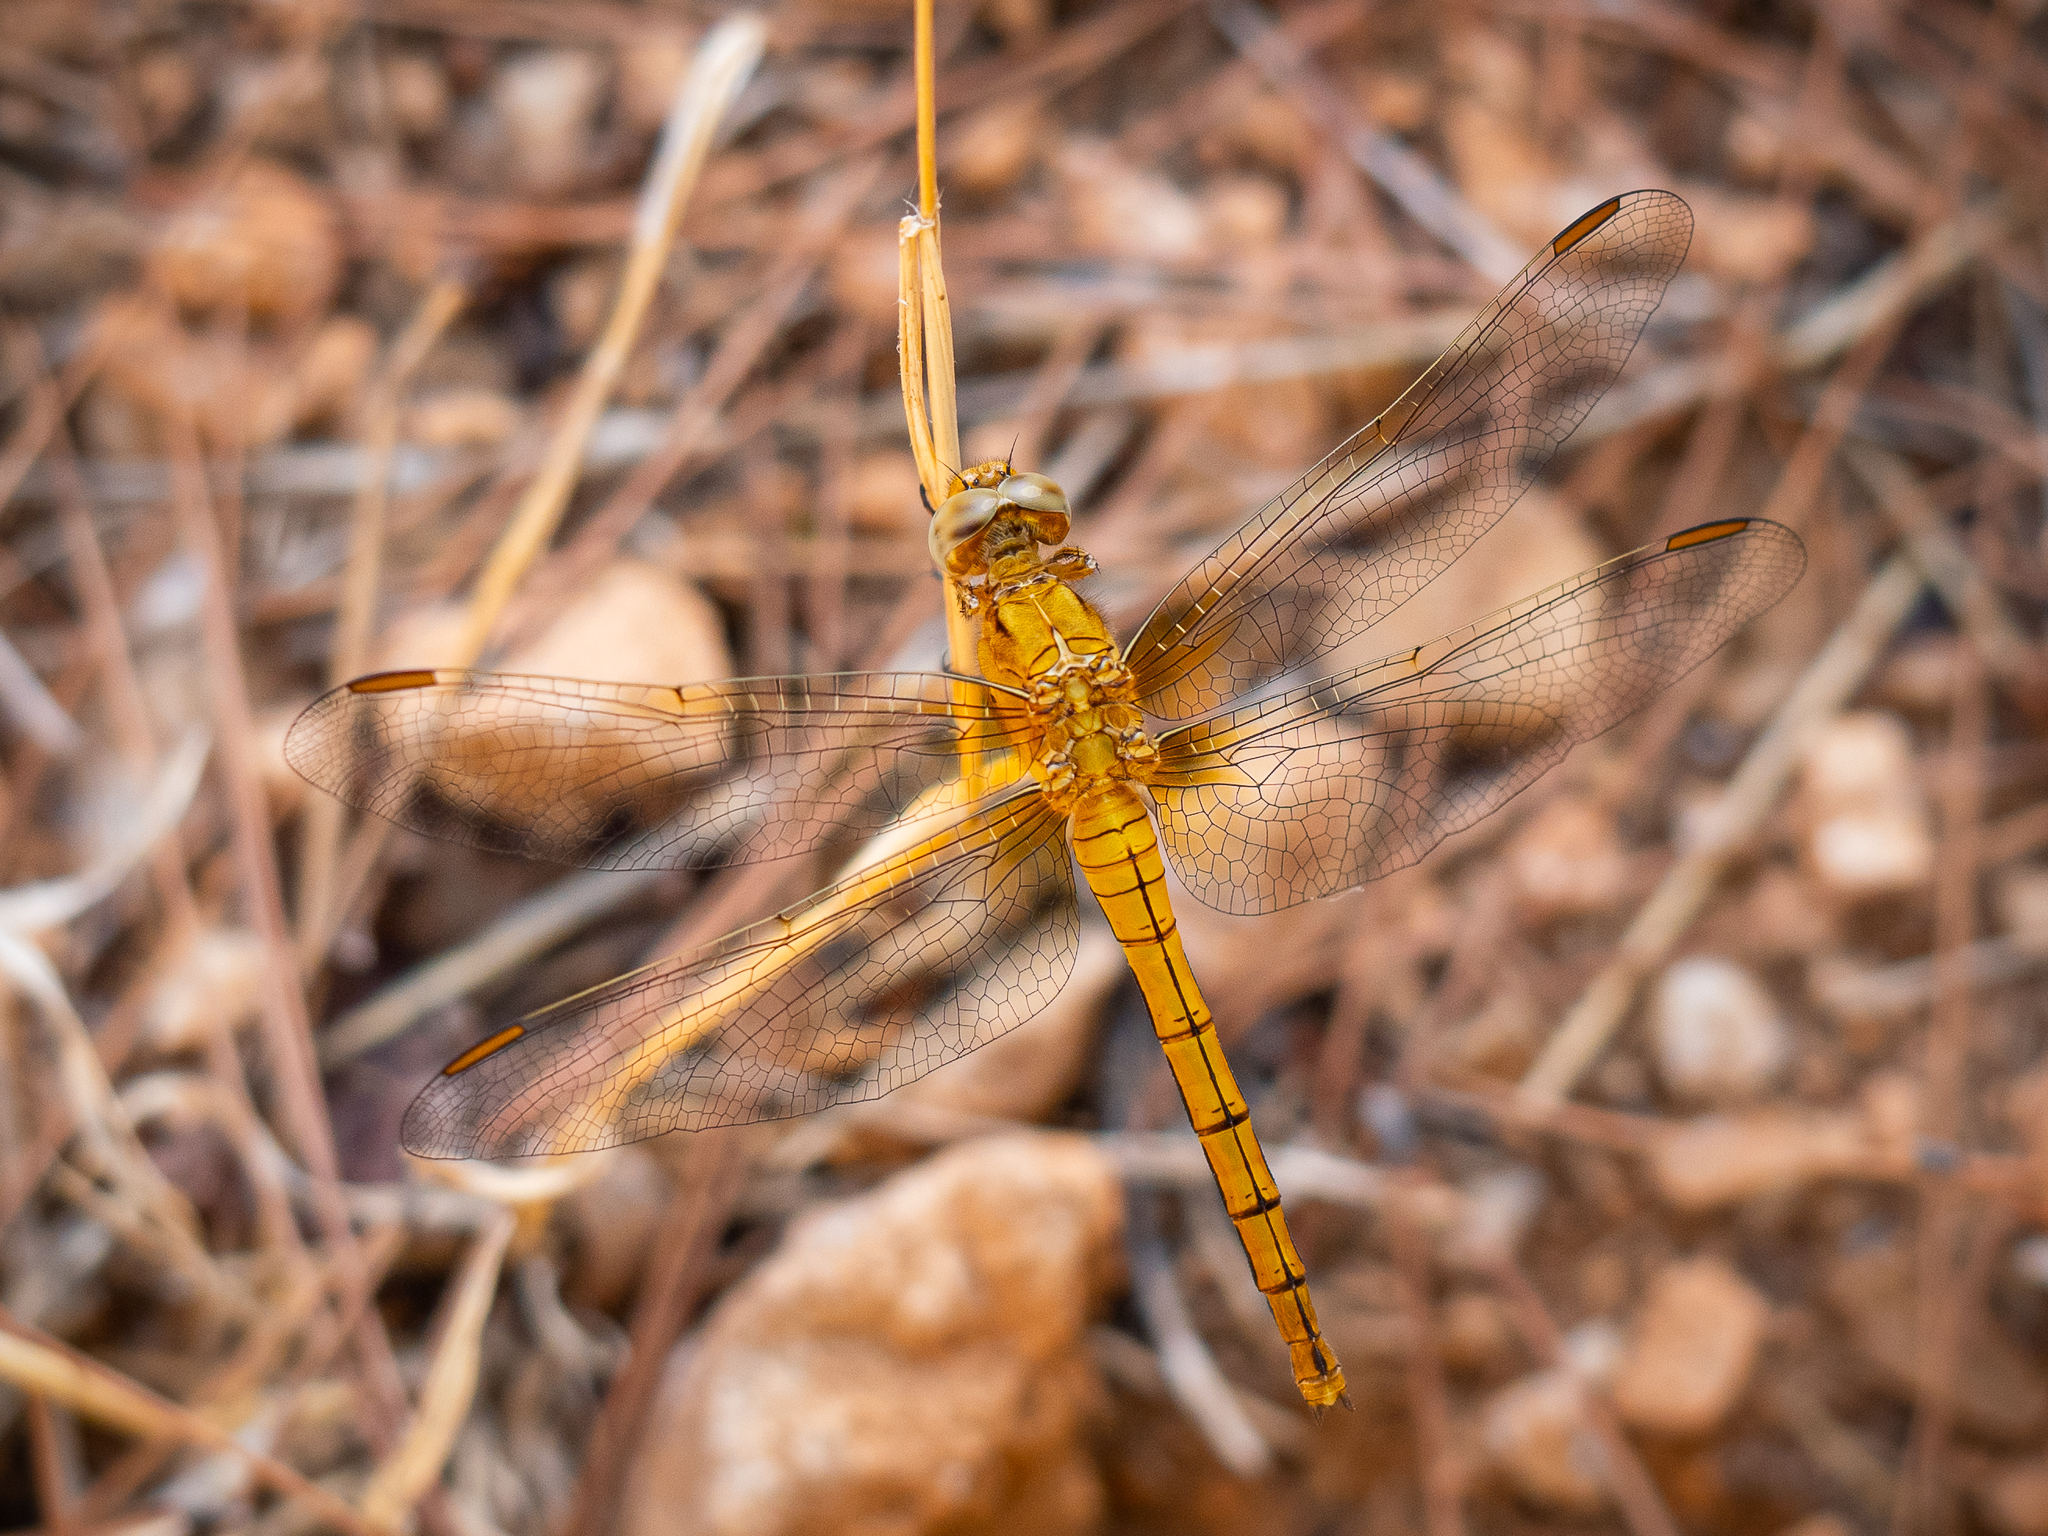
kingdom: Animalia
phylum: Arthropoda
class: Insecta
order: Odonata
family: Libellulidae
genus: Orthetrum
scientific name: Orthetrum coerulescens
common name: Keeled skimmer
